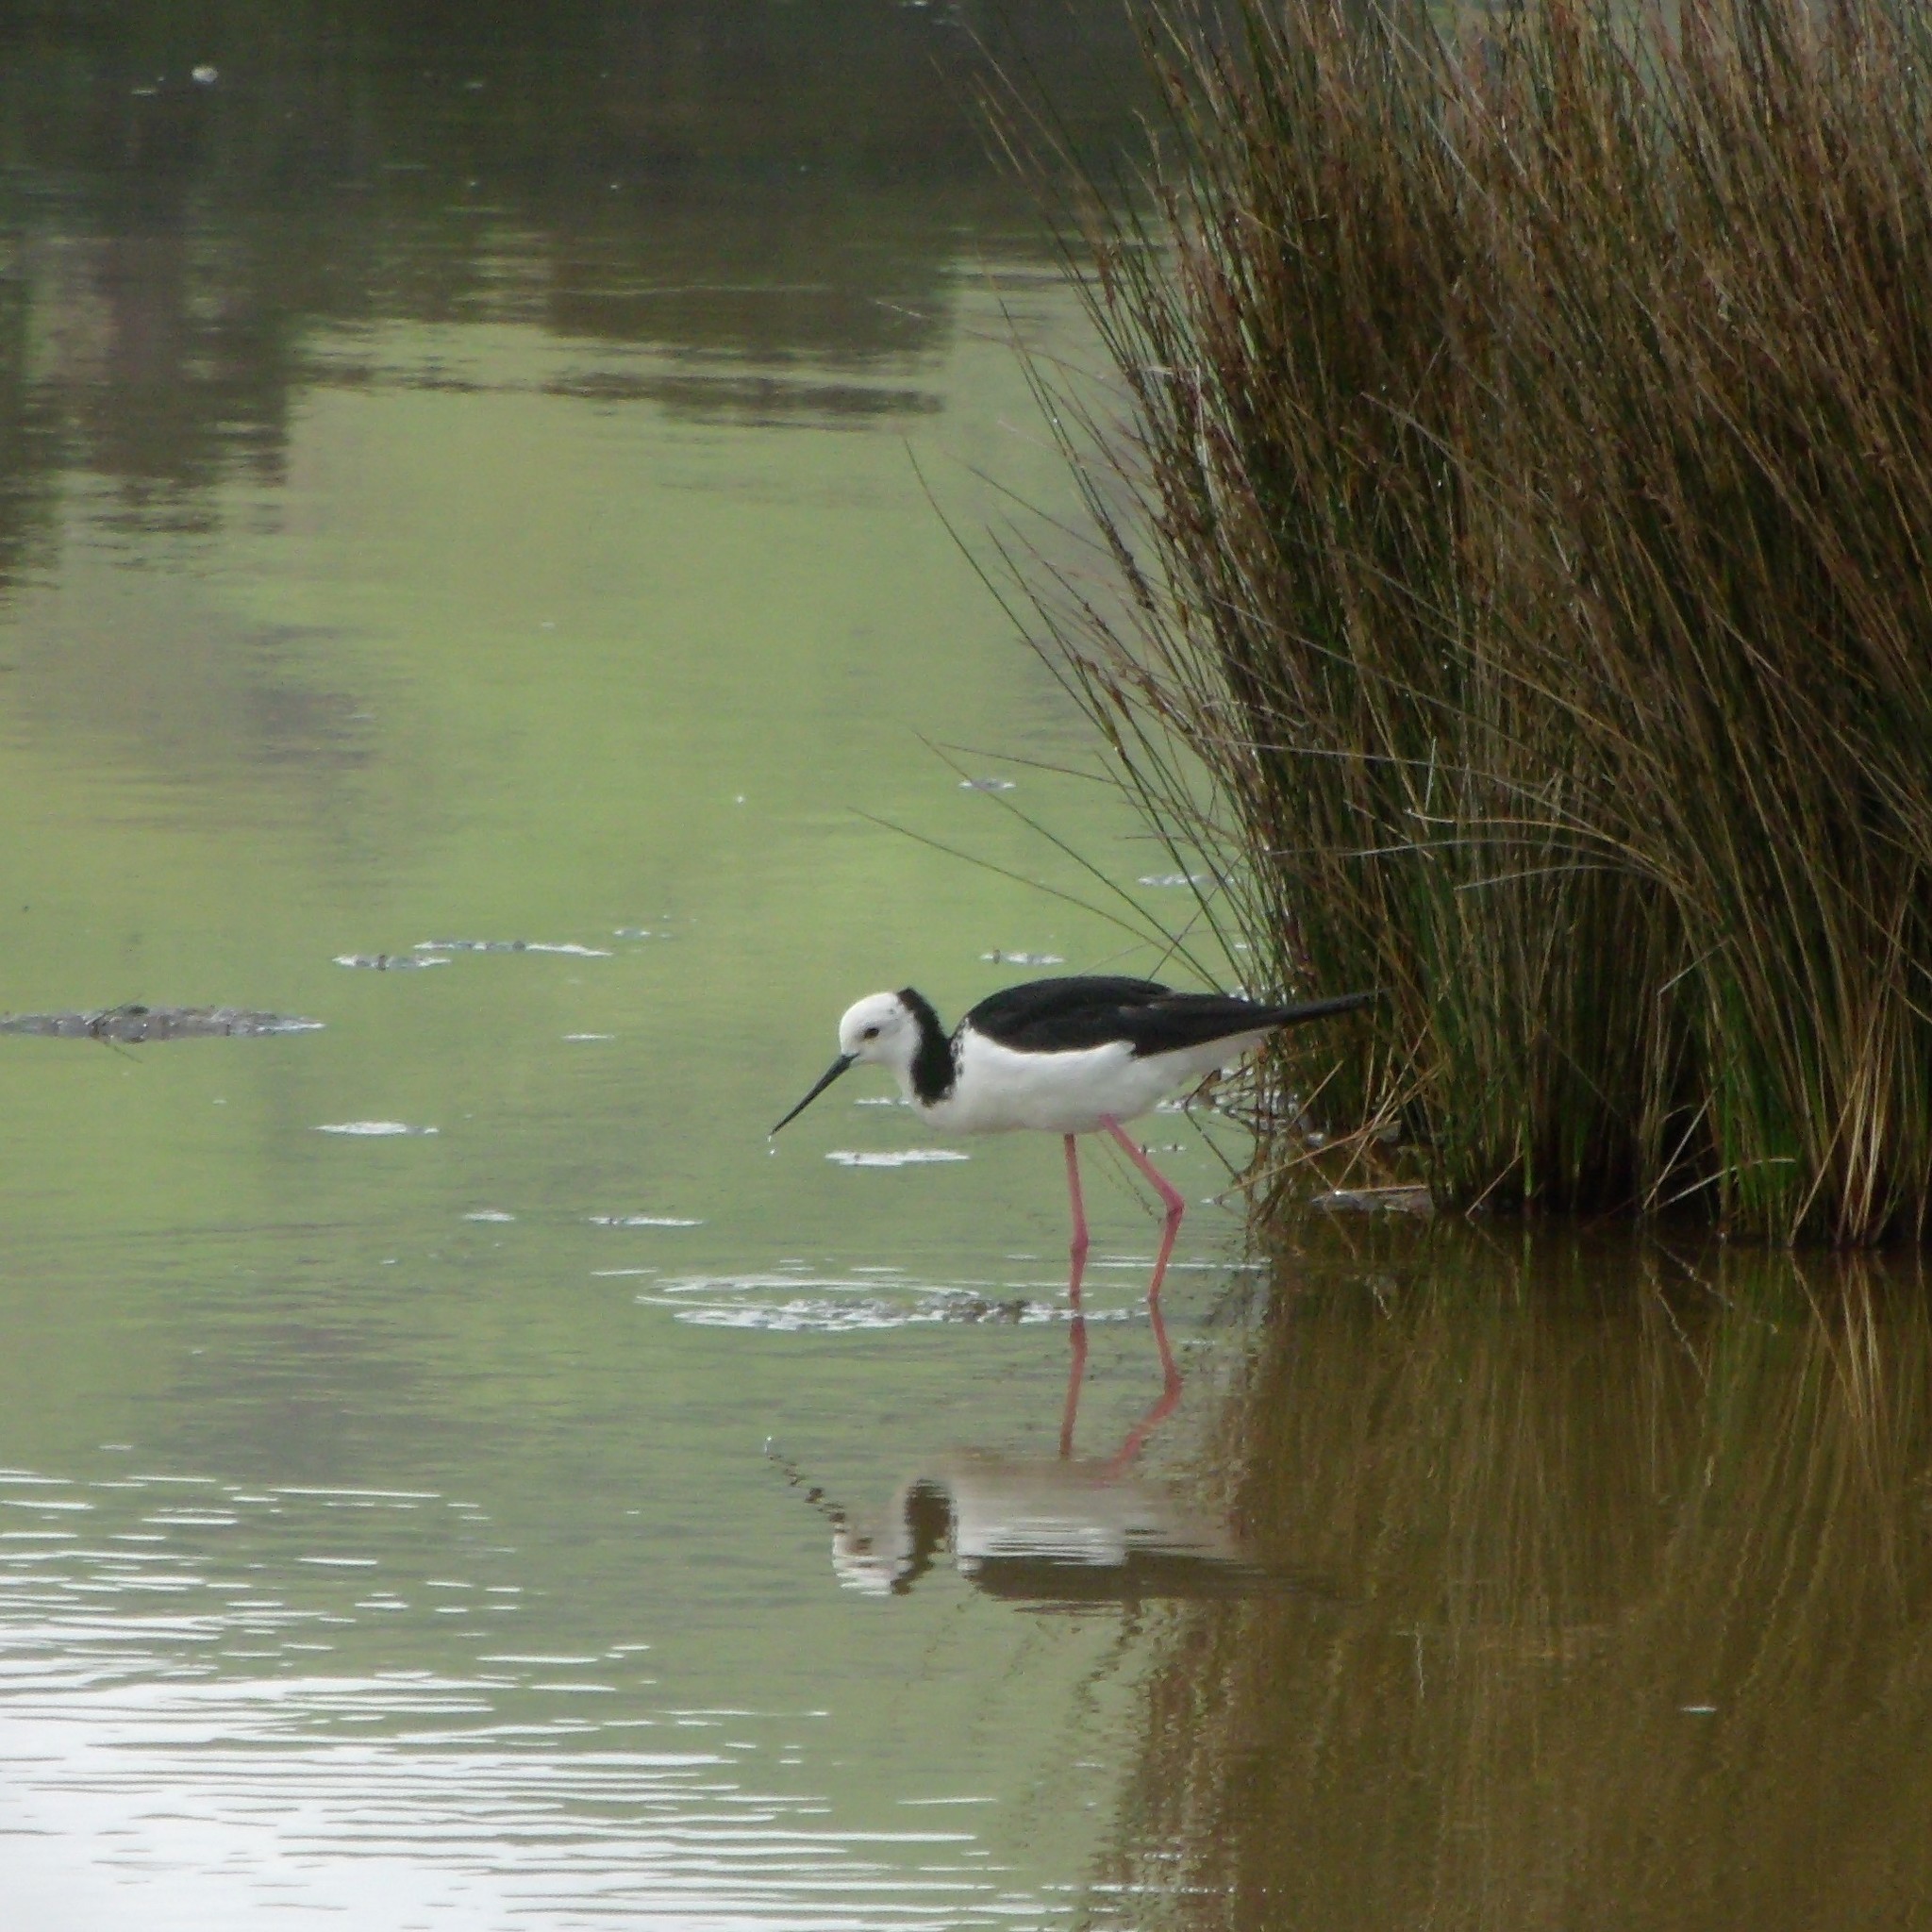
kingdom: Animalia
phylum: Chordata
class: Aves
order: Charadriiformes
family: Recurvirostridae
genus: Himantopus
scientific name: Himantopus leucocephalus
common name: White-headed stilt
